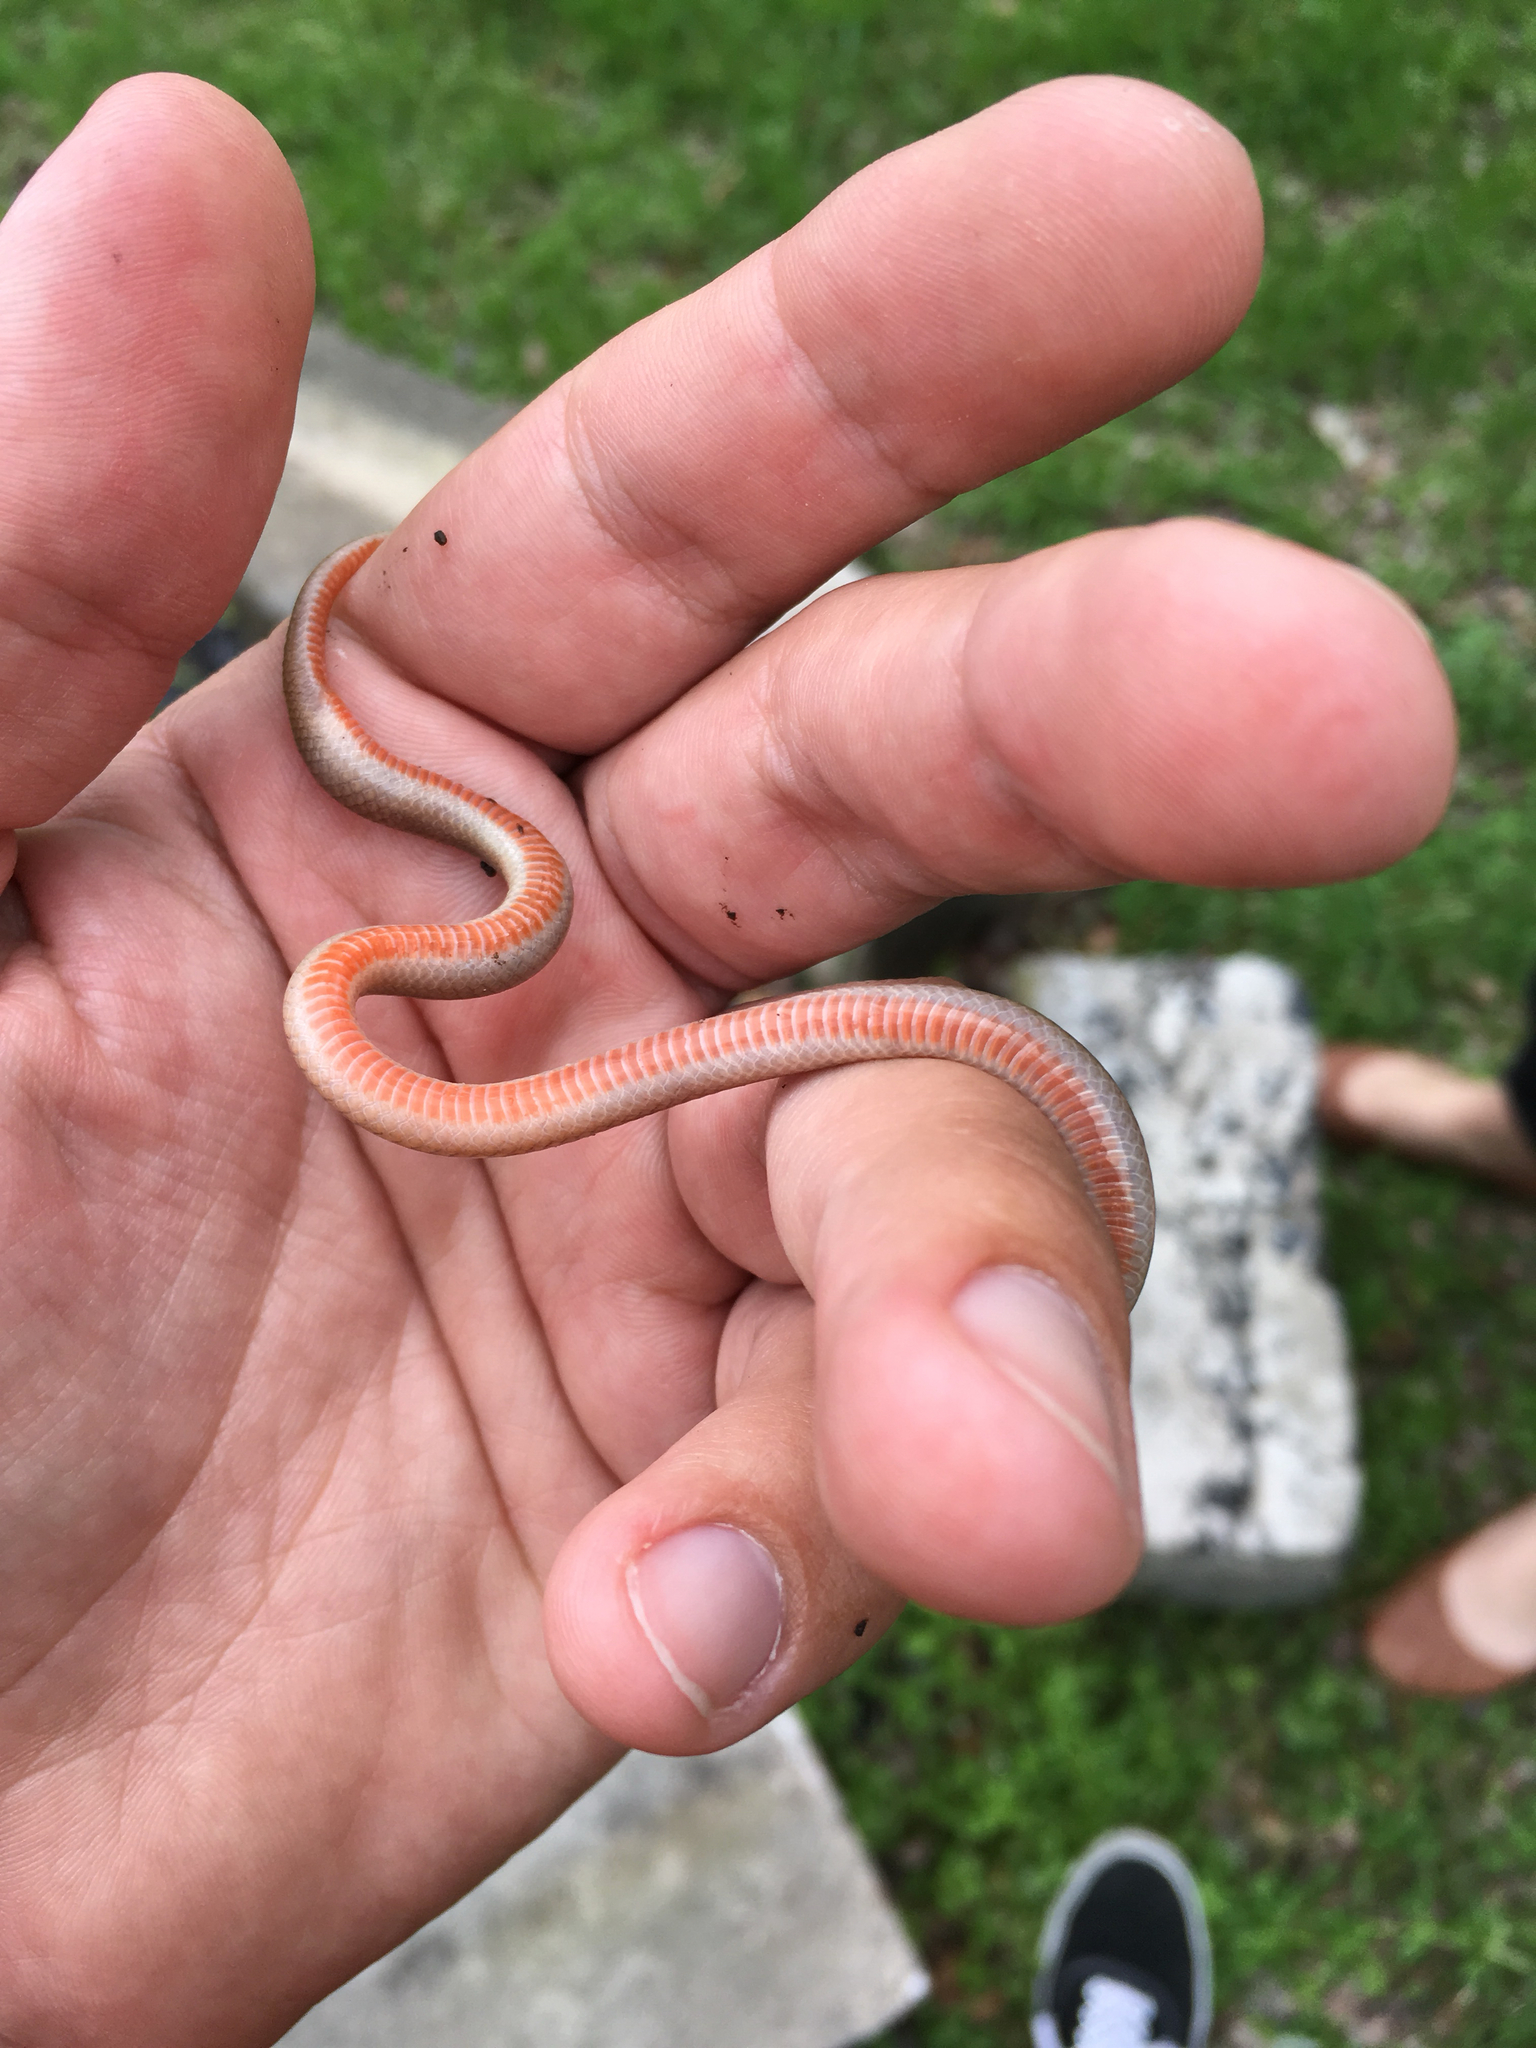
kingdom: Animalia
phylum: Chordata
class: Squamata
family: Colubridae
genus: Tantilla
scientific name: Tantilla gracilis
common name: Flathead snake
